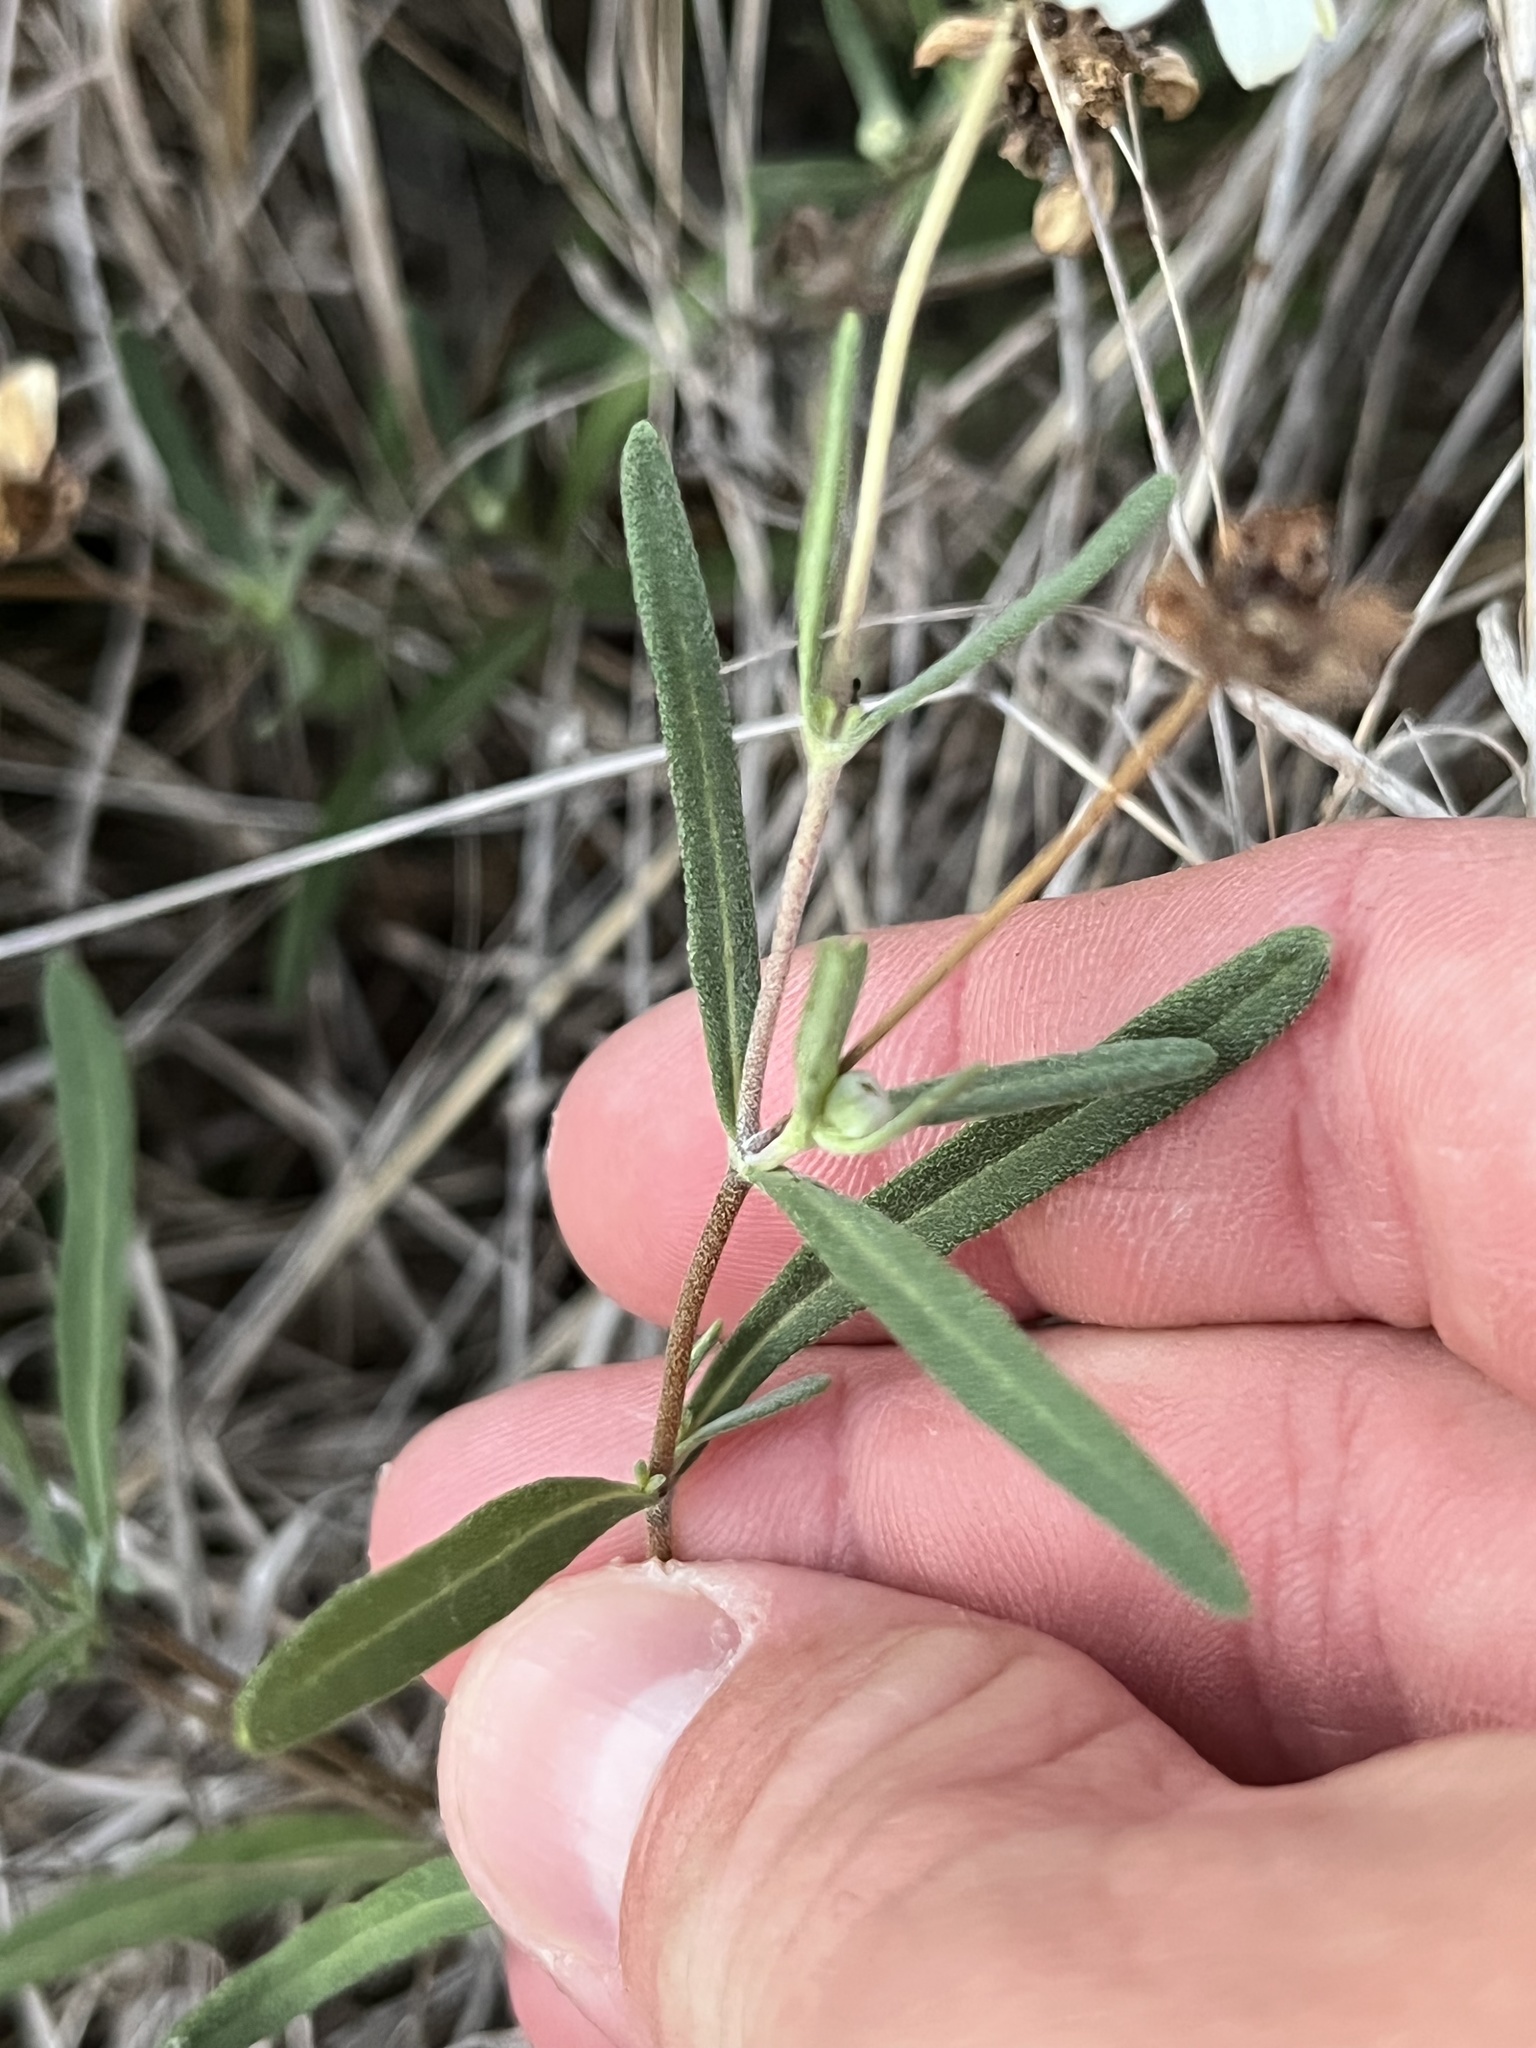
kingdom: Plantae
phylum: Tracheophyta
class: Magnoliopsida
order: Asterales
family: Asteraceae
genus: Melampodium
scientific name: Melampodium leucanthum
